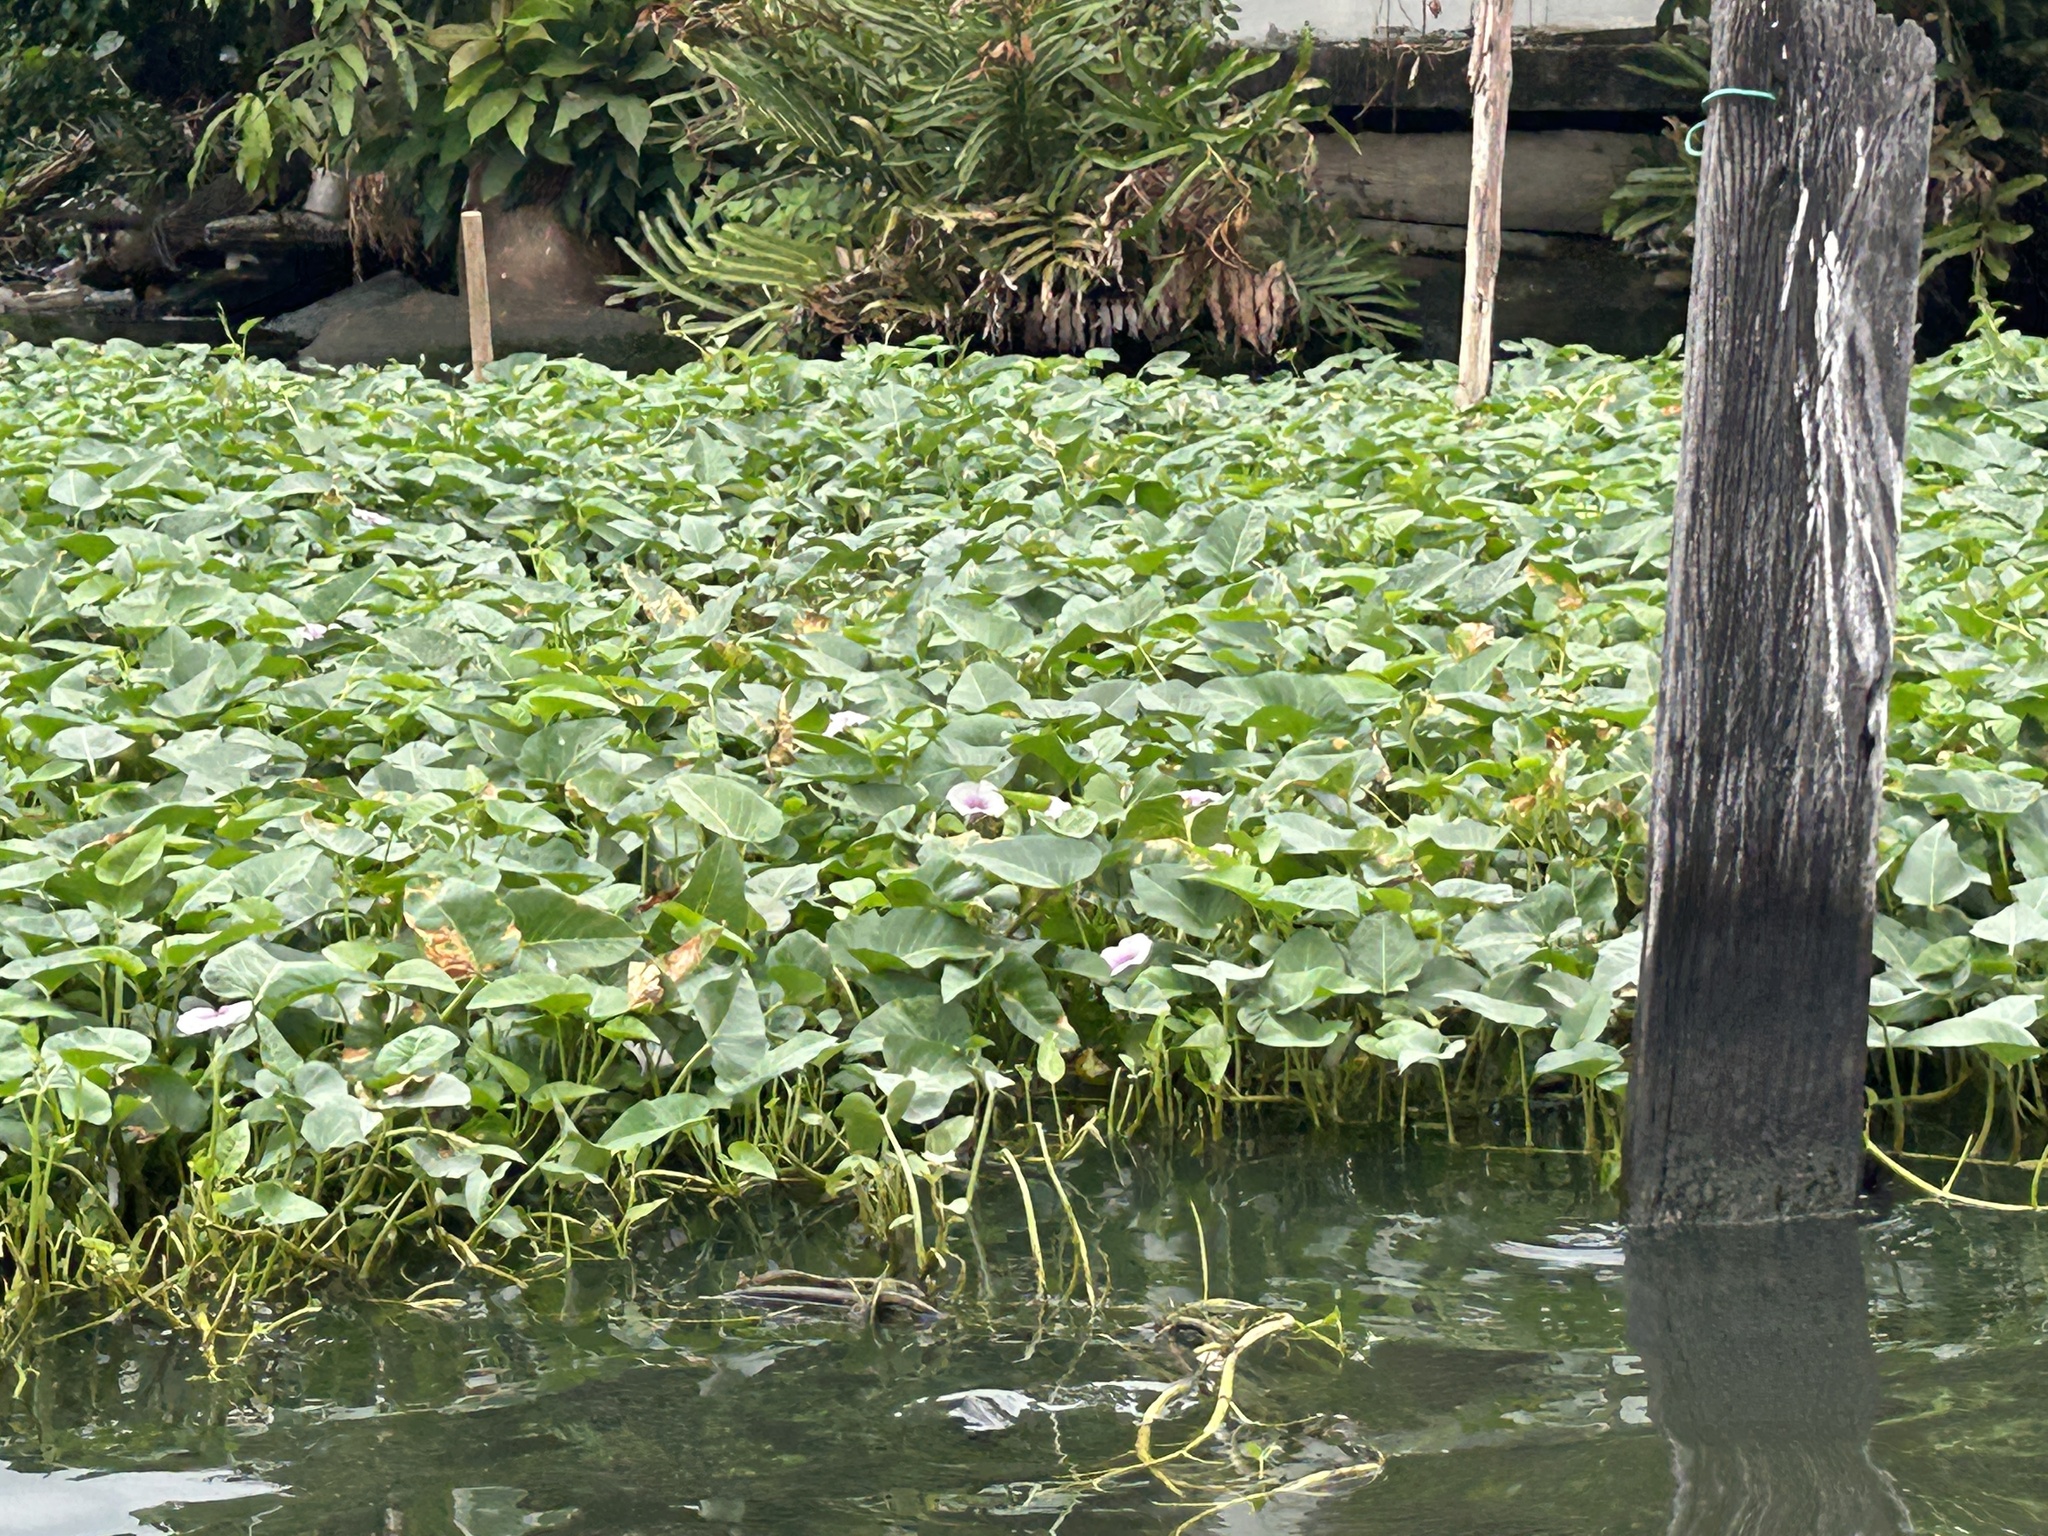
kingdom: Plantae
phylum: Tracheophyta
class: Magnoliopsida
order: Solanales
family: Convolvulaceae
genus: Ipomoea
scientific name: Ipomoea aquatica
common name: Swamp morning-glory
